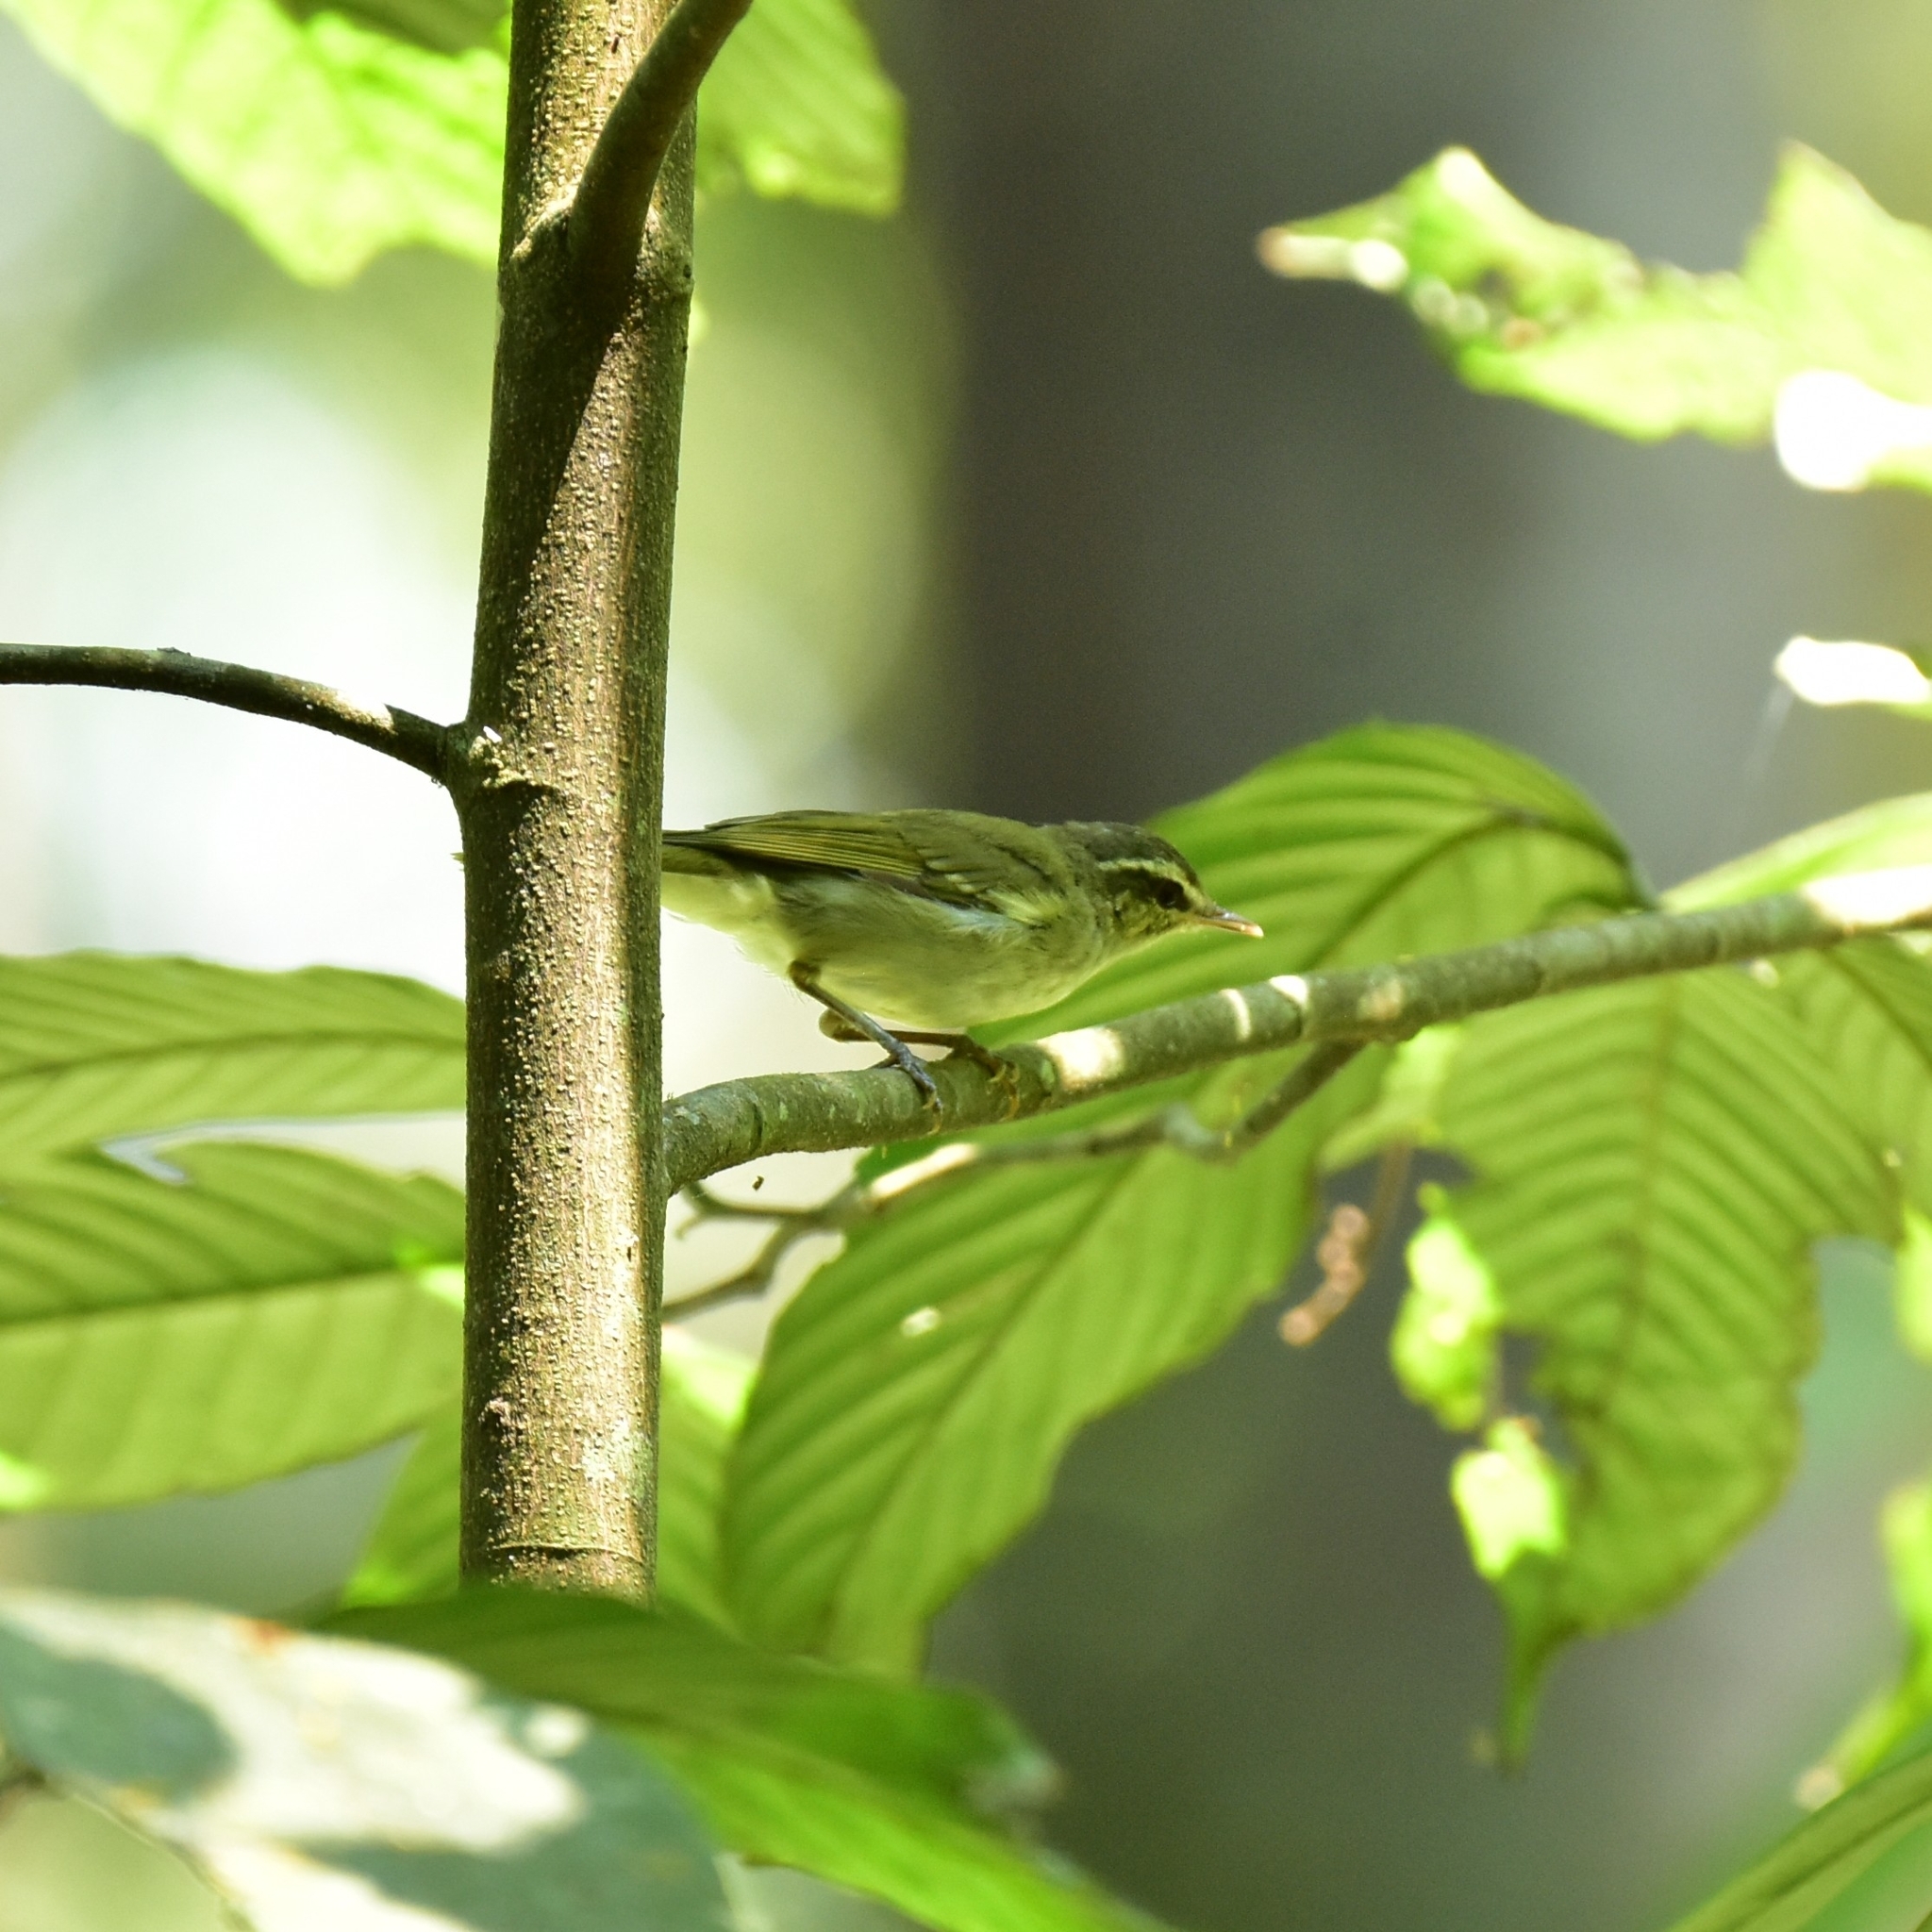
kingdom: Animalia
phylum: Chordata
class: Aves
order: Passeriformes
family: Phylloscopidae
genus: Phylloscopus
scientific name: Phylloscopus nitidus
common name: Green warbler
